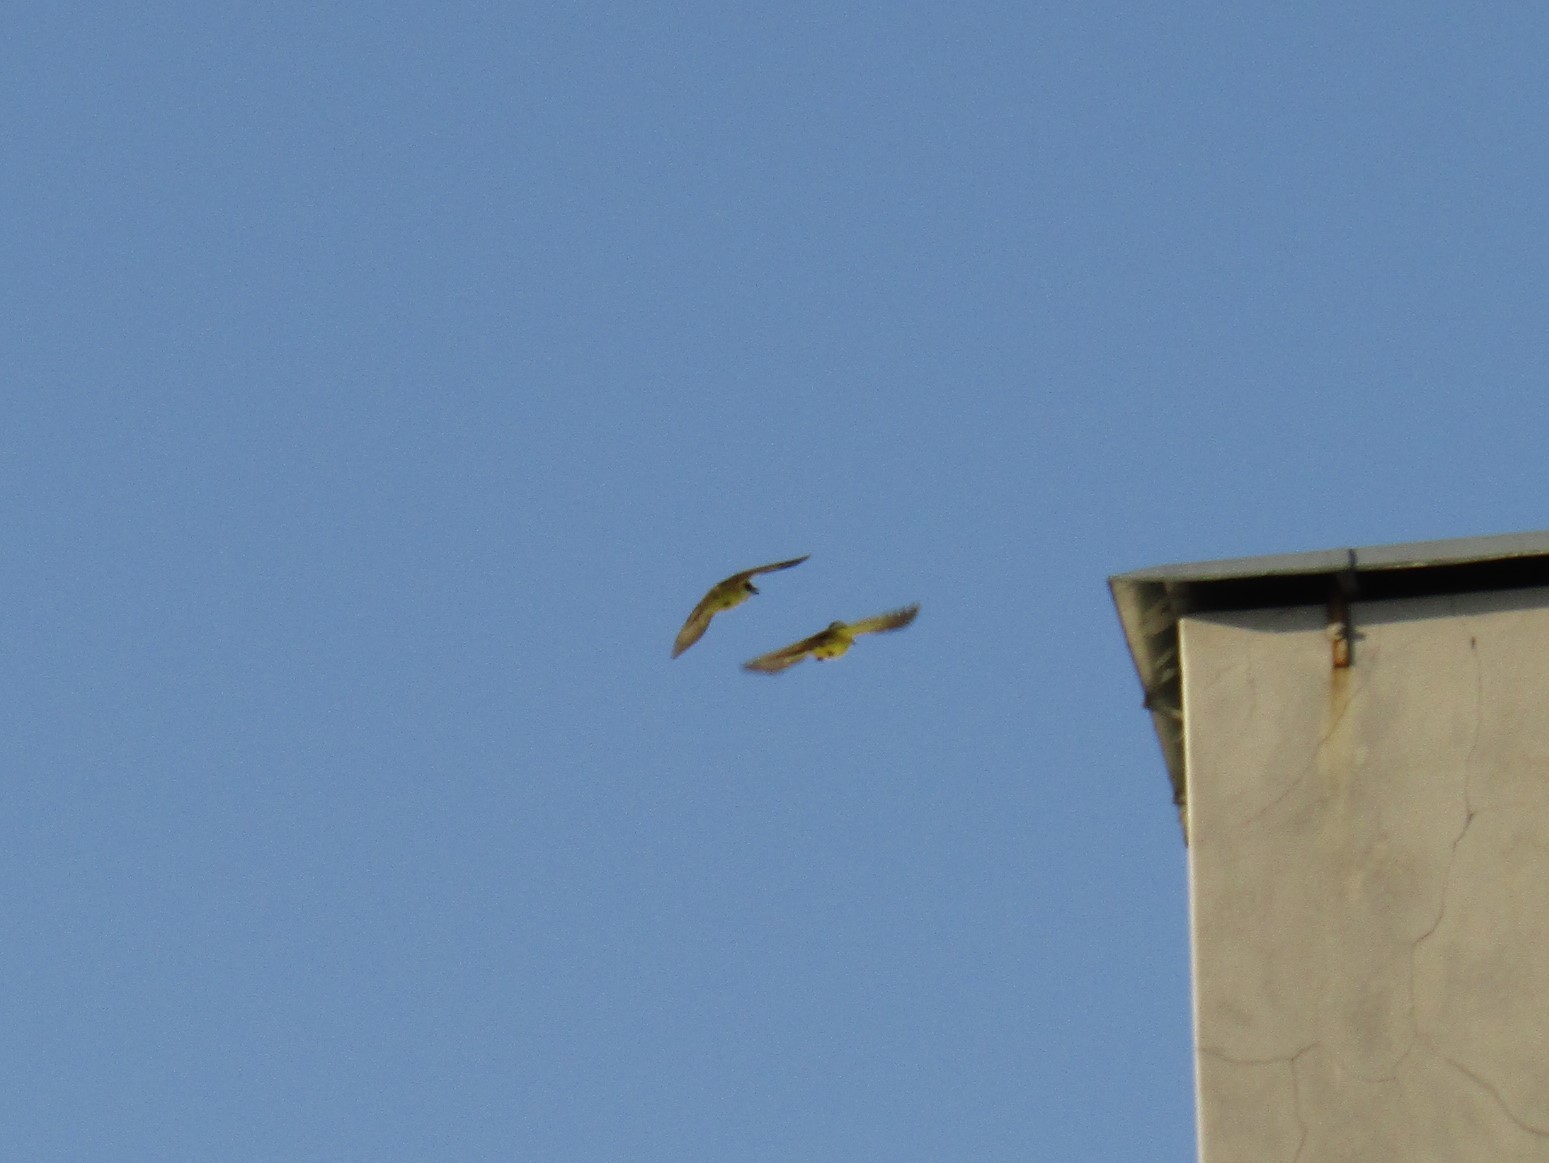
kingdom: Animalia
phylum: Chordata
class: Aves
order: Passeriformes
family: Tyrannidae
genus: Pitangus
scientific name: Pitangus sulphuratus
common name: Great kiskadee
